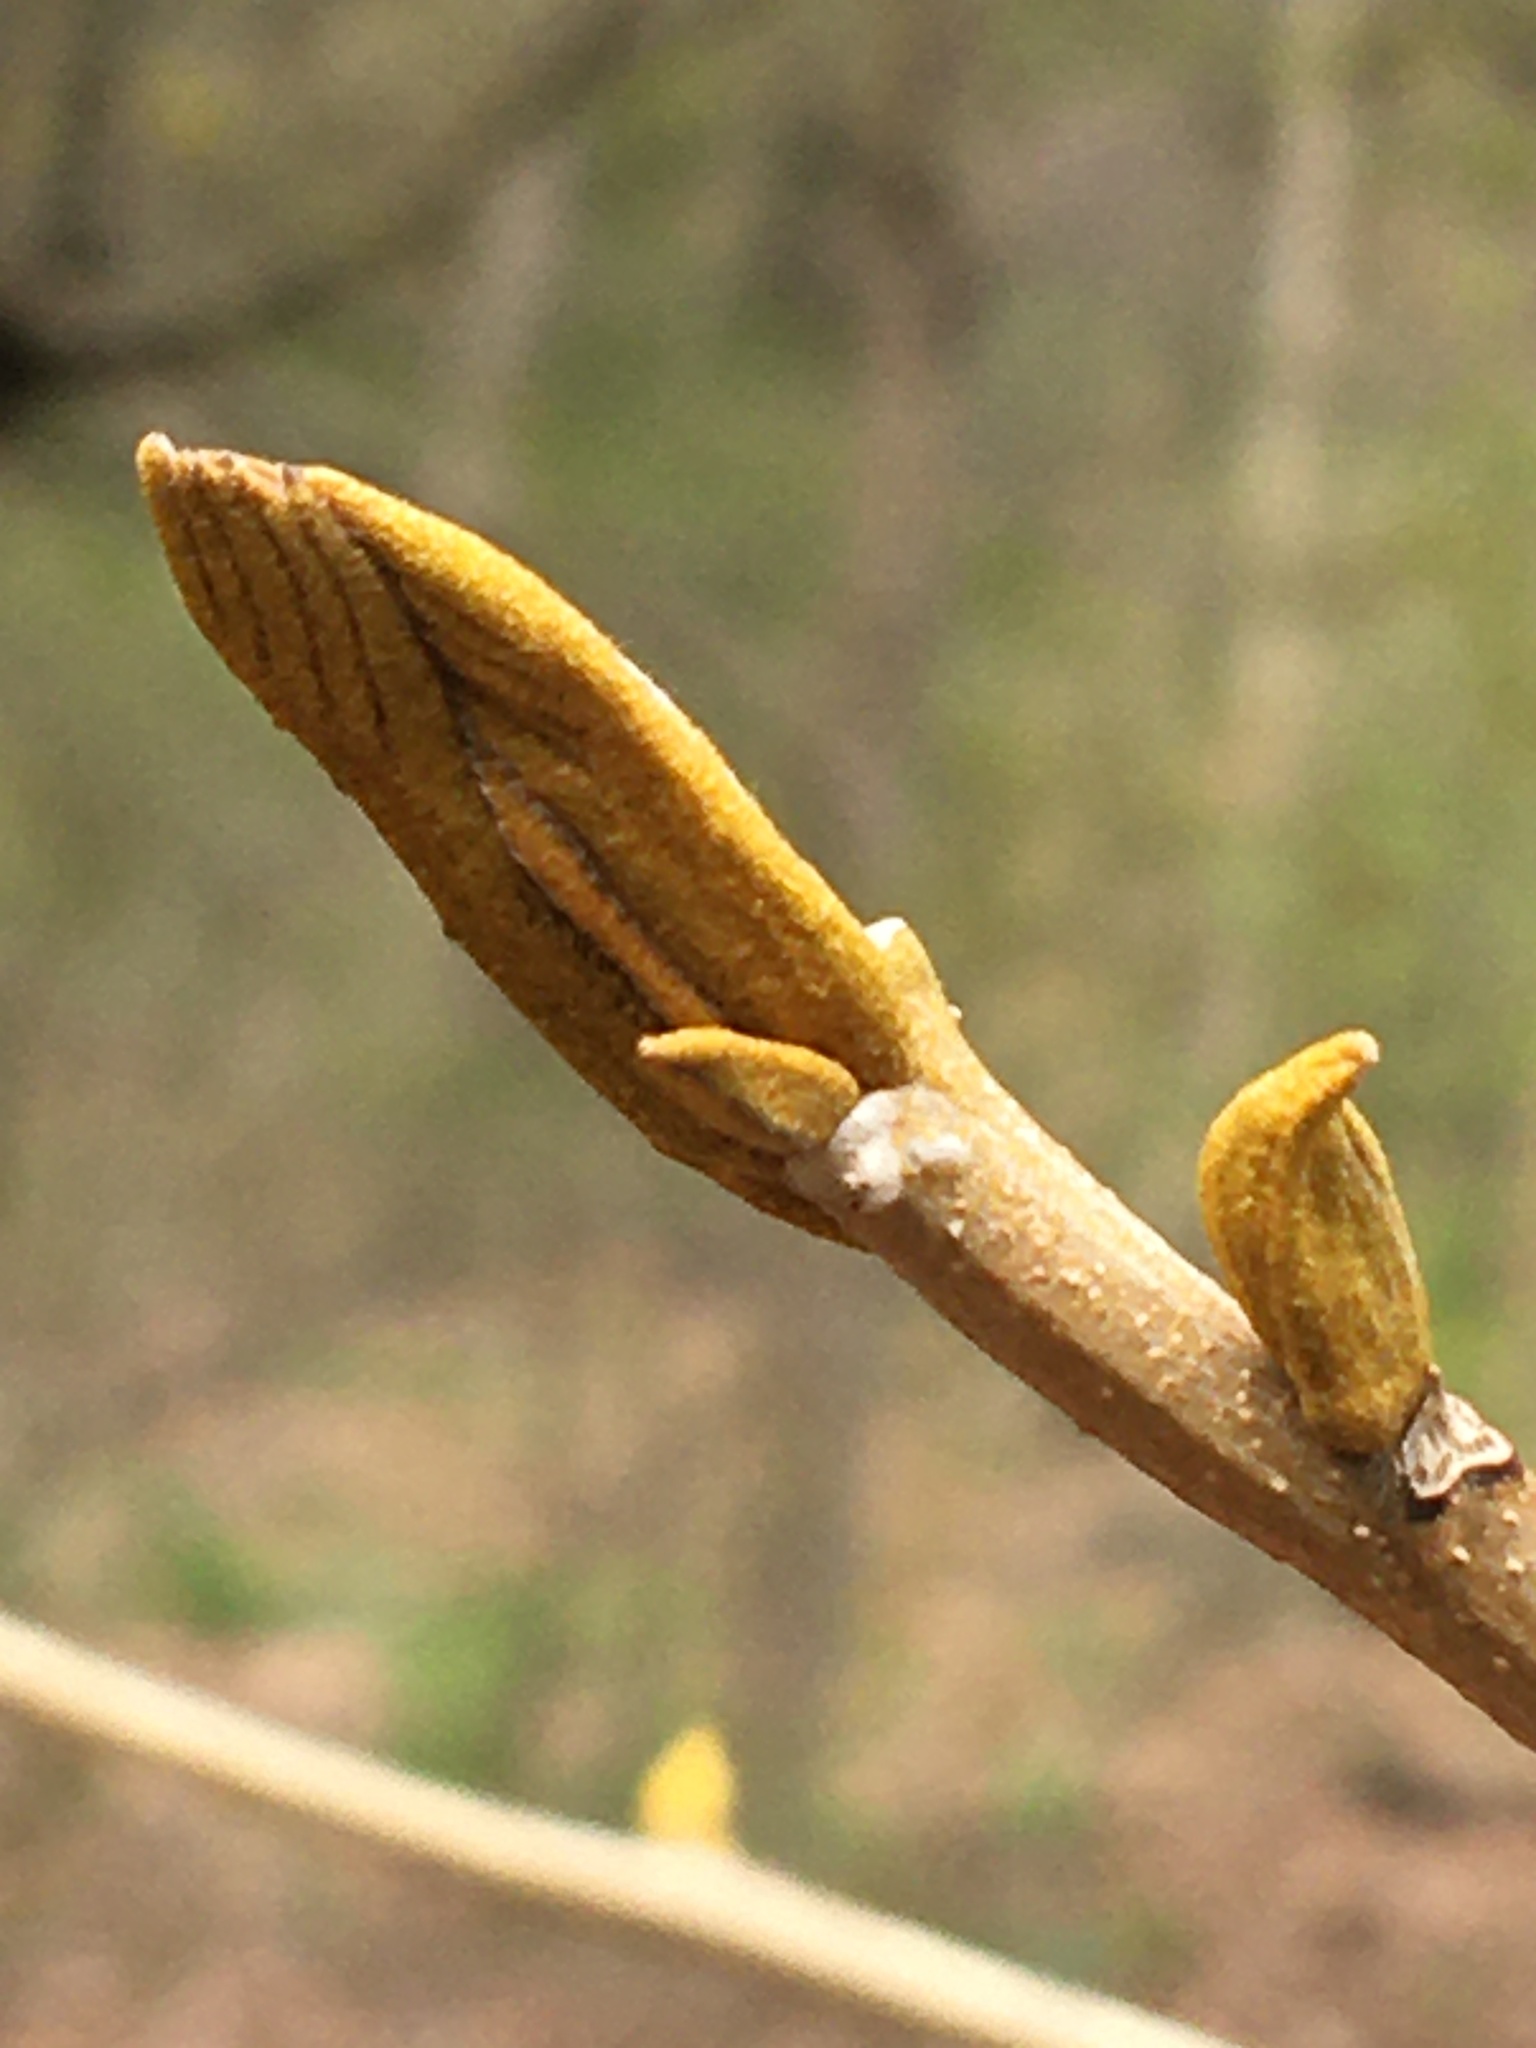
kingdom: Plantae
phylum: Tracheophyta
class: Magnoliopsida
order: Fagales
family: Juglandaceae
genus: Carya
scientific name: Carya cordiformis
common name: Bitternut hickory
